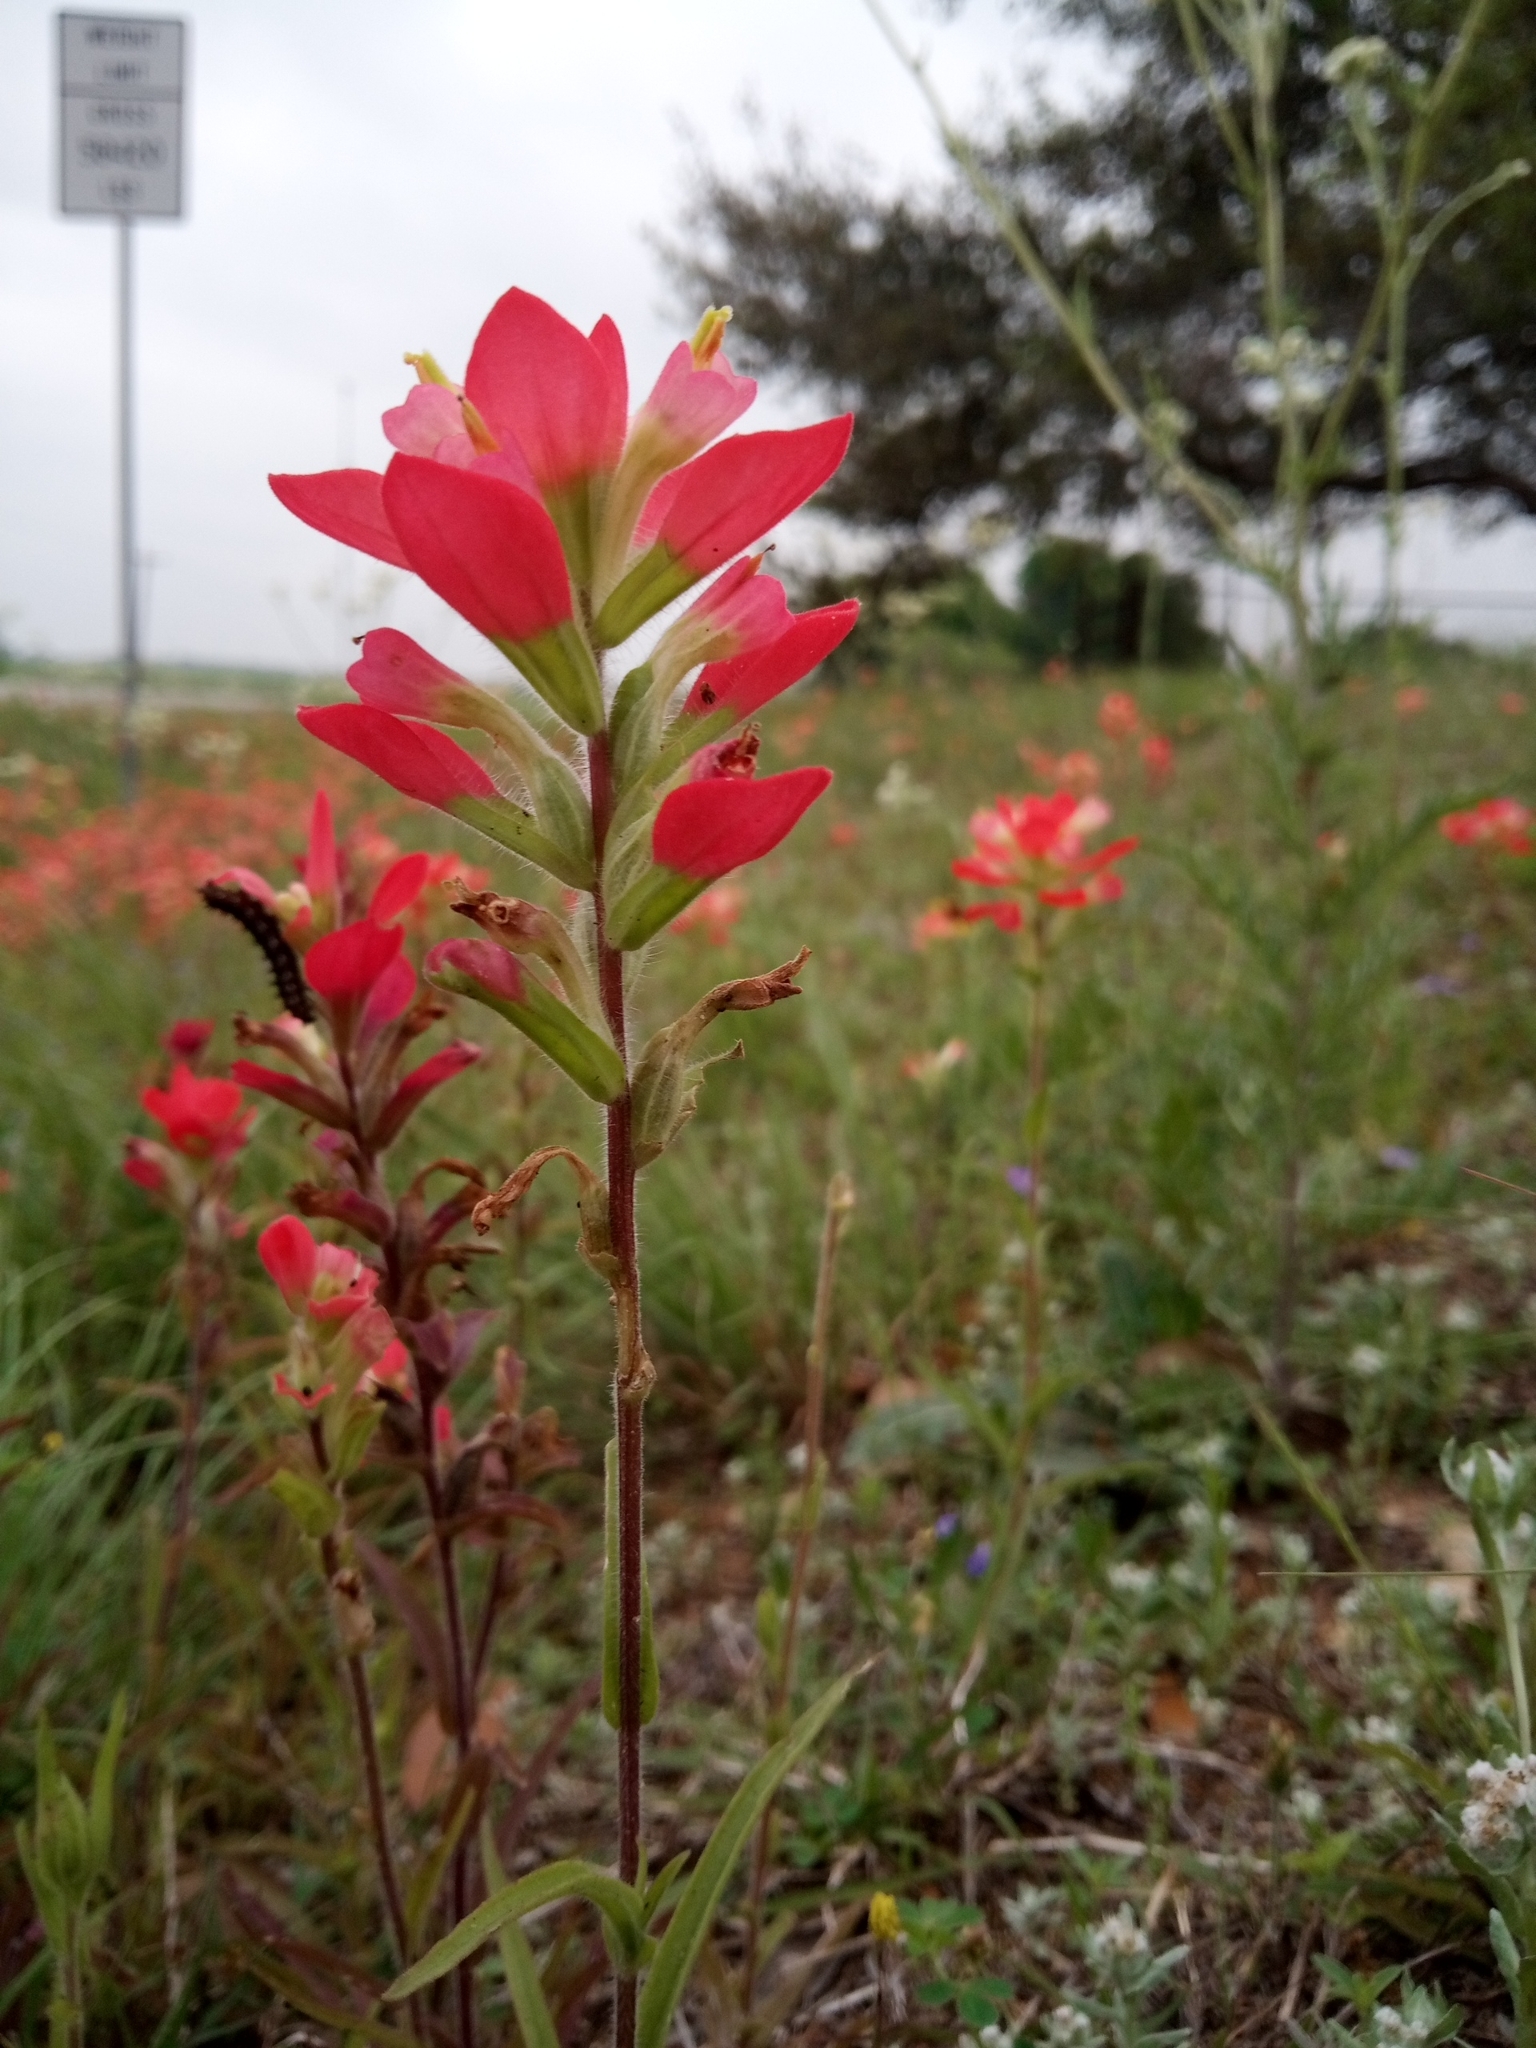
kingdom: Plantae
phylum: Tracheophyta
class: Magnoliopsida
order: Lamiales
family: Orobanchaceae
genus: Castilleja
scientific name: Castilleja indivisa
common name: Texas paintbrush
